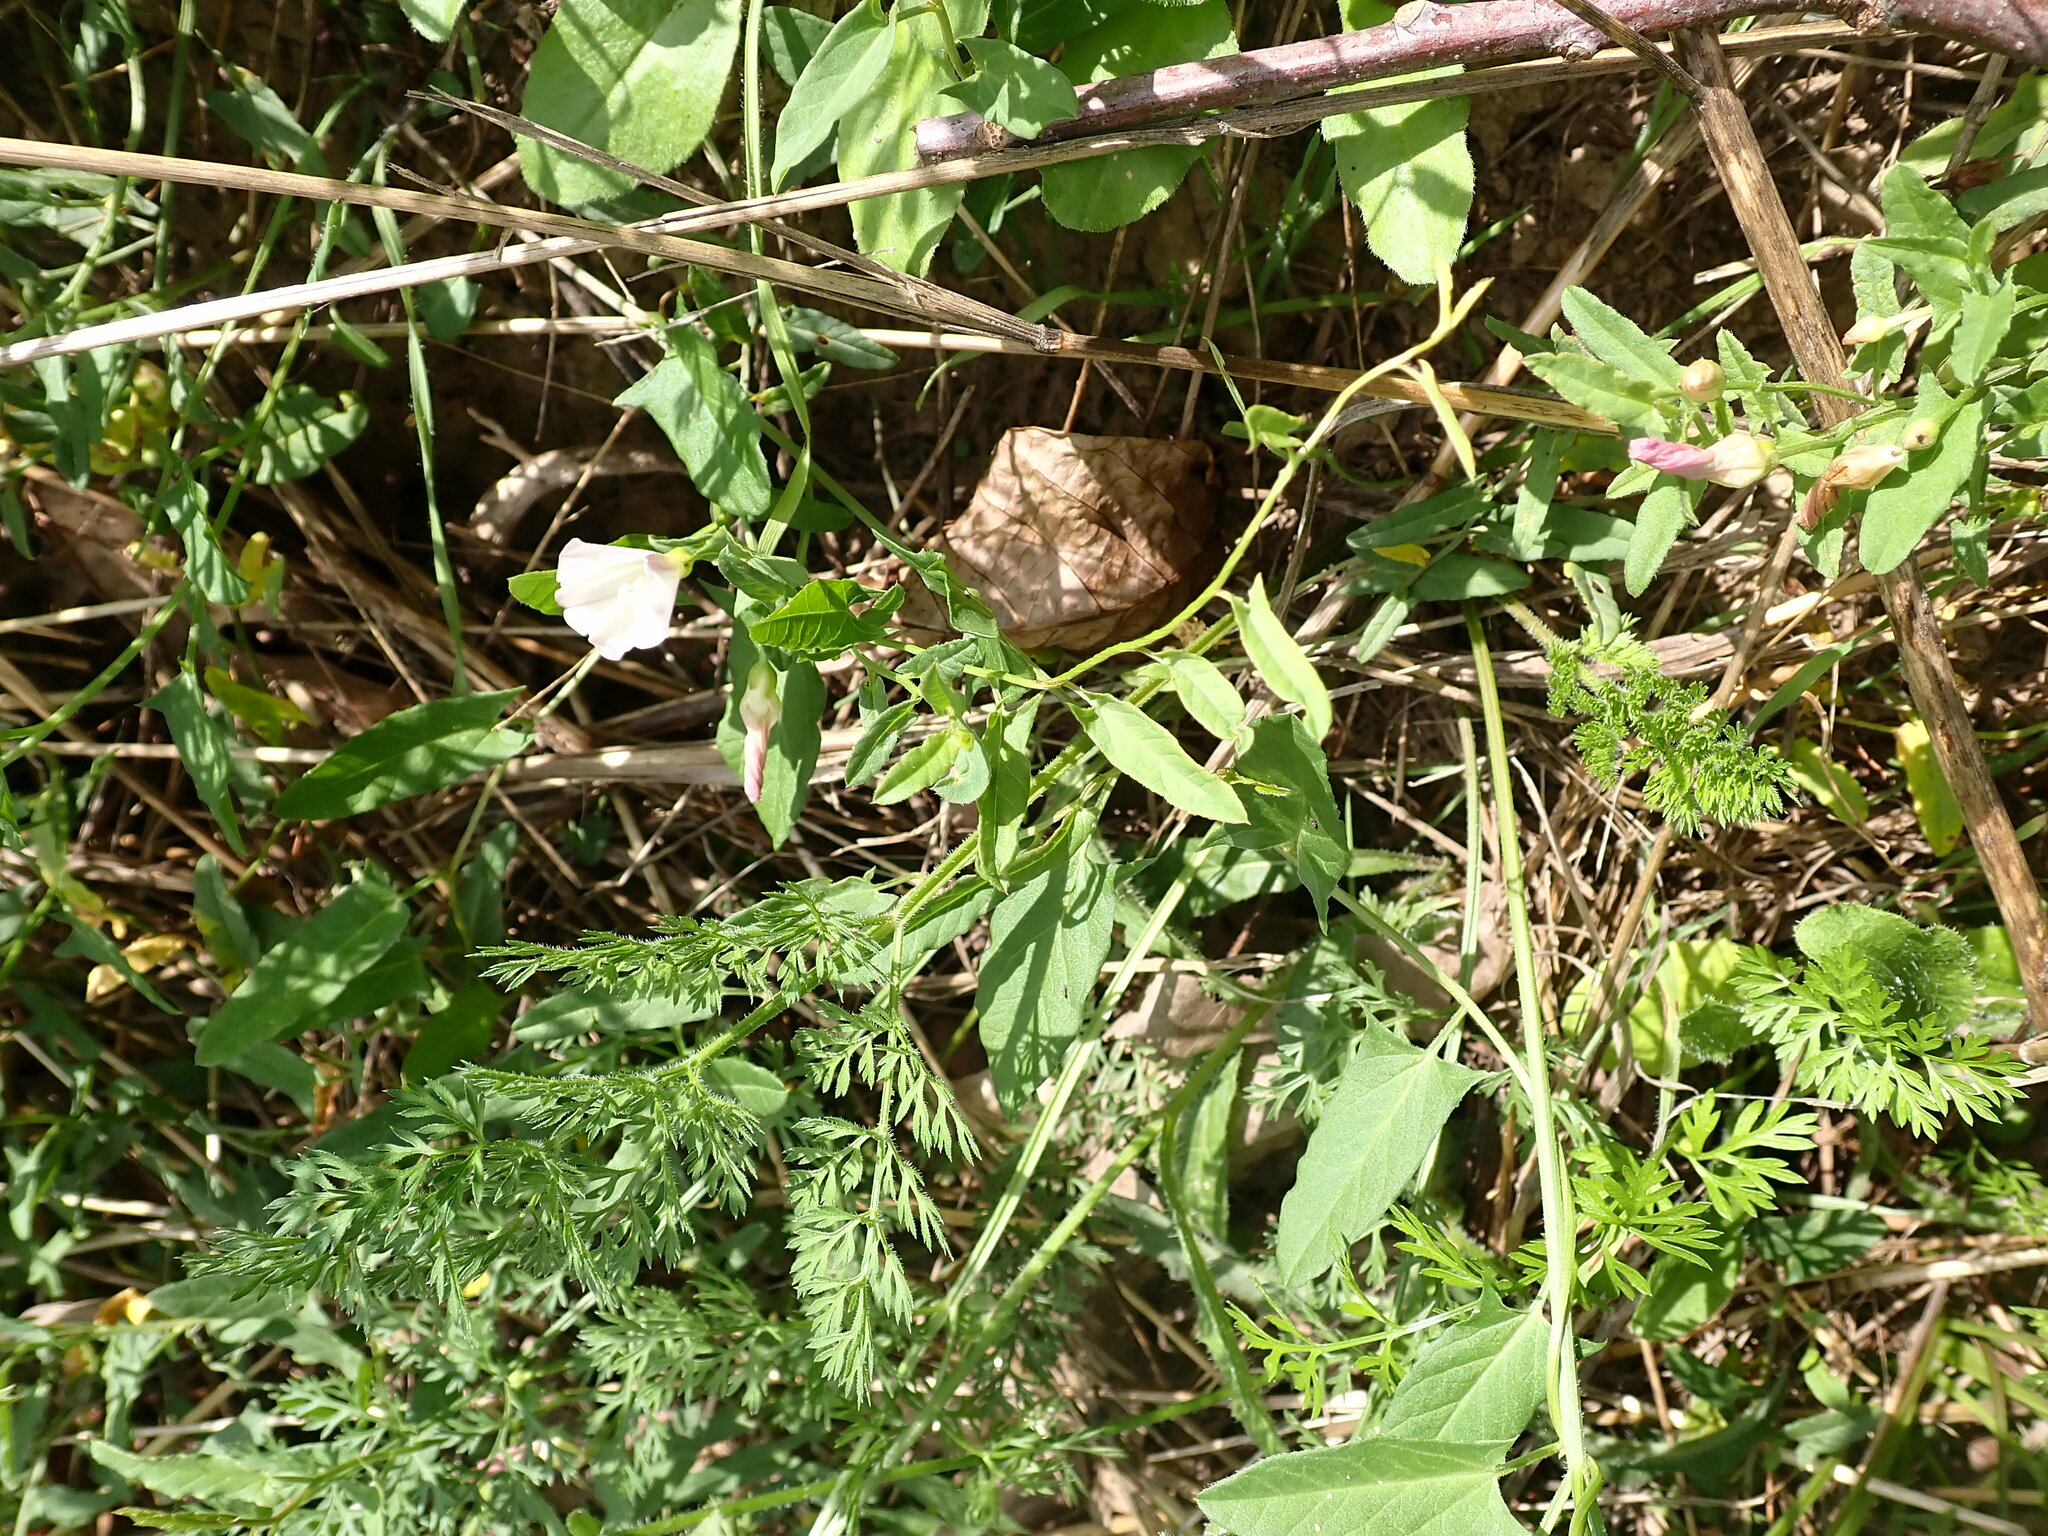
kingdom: Plantae
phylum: Tracheophyta
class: Magnoliopsida
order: Solanales
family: Convolvulaceae
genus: Convolvulus
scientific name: Convolvulus arvensis
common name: Field bindweed
